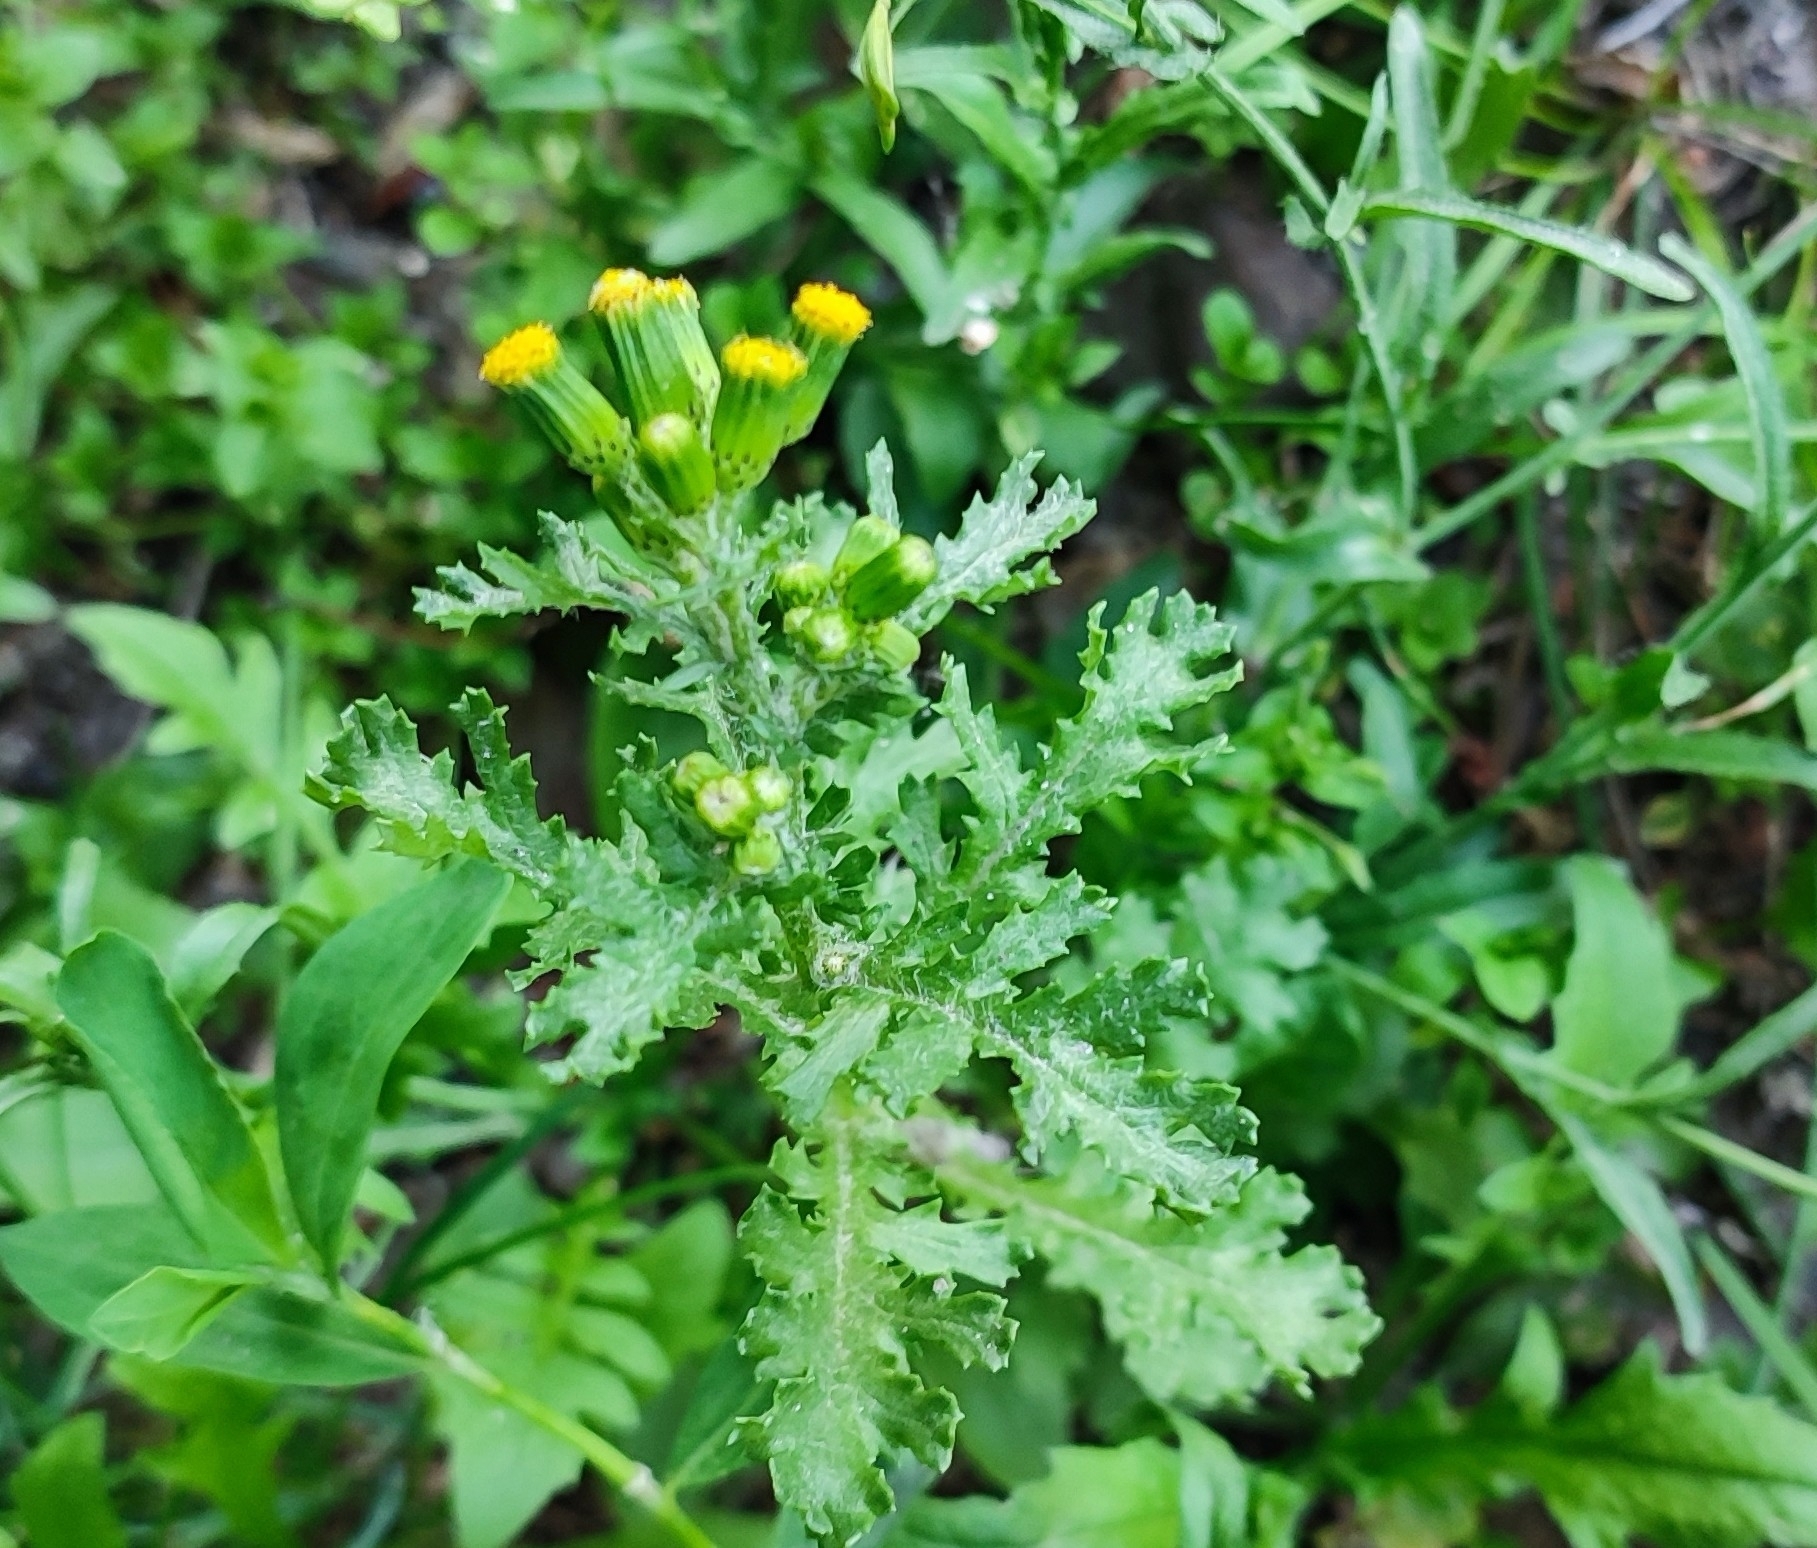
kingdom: Plantae
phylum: Tracheophyta
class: Magnoliopsida
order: Asterales
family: Asteraceae
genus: Senecio
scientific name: Senecio vulgaris
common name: Old-man-in-the-spring
